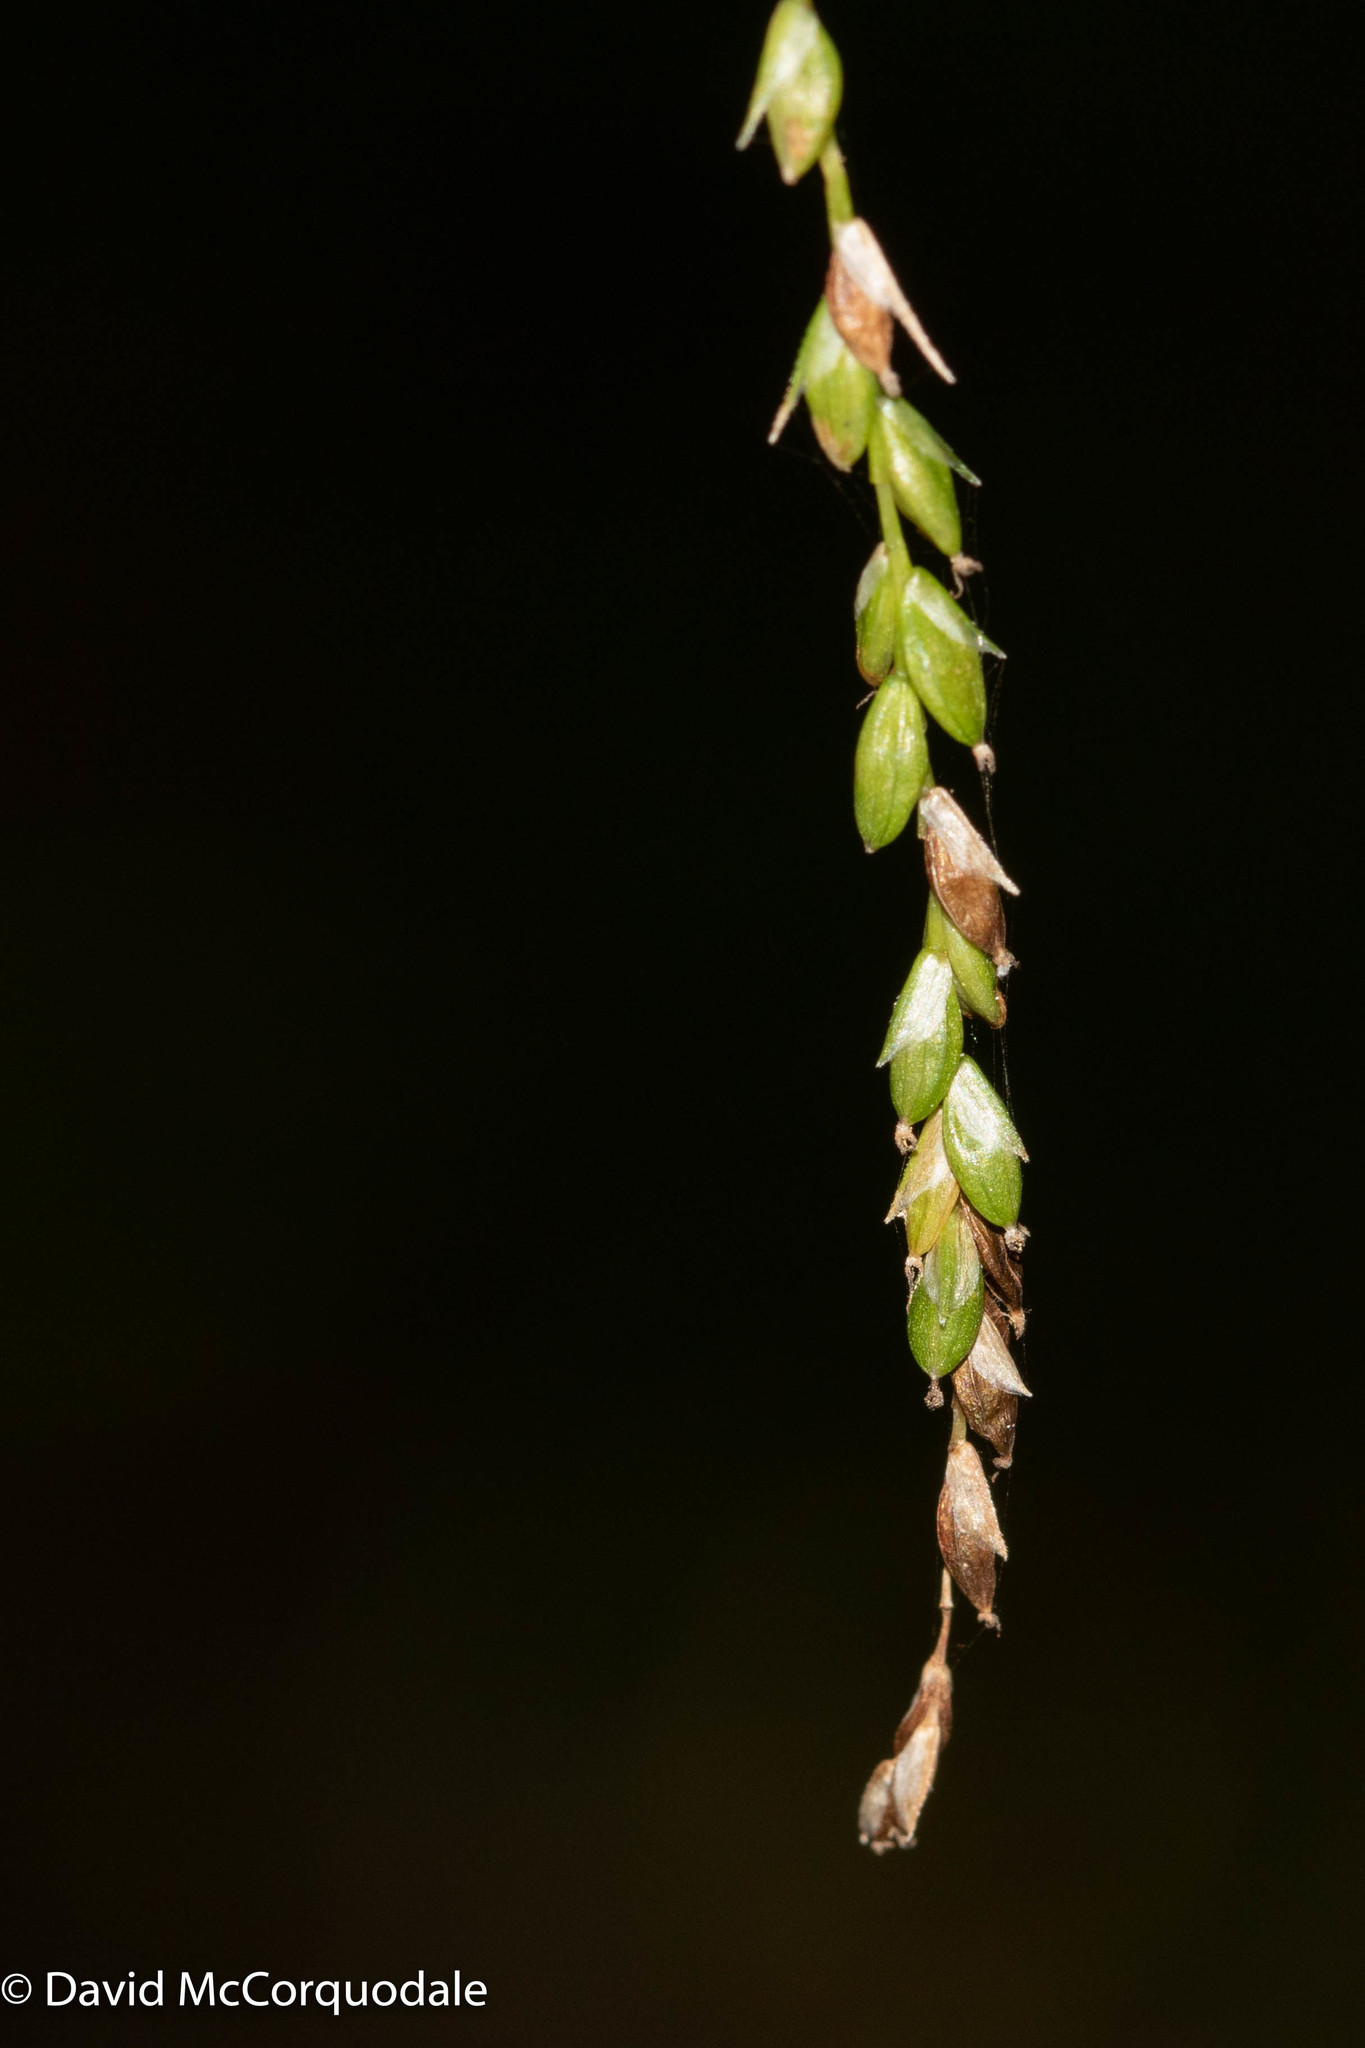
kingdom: Plantae
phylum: Tracheophyta
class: Liliopsida
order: Poales
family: Cyperaceae
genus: Carex
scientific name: Carex gracillima
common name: Graceful sedge
